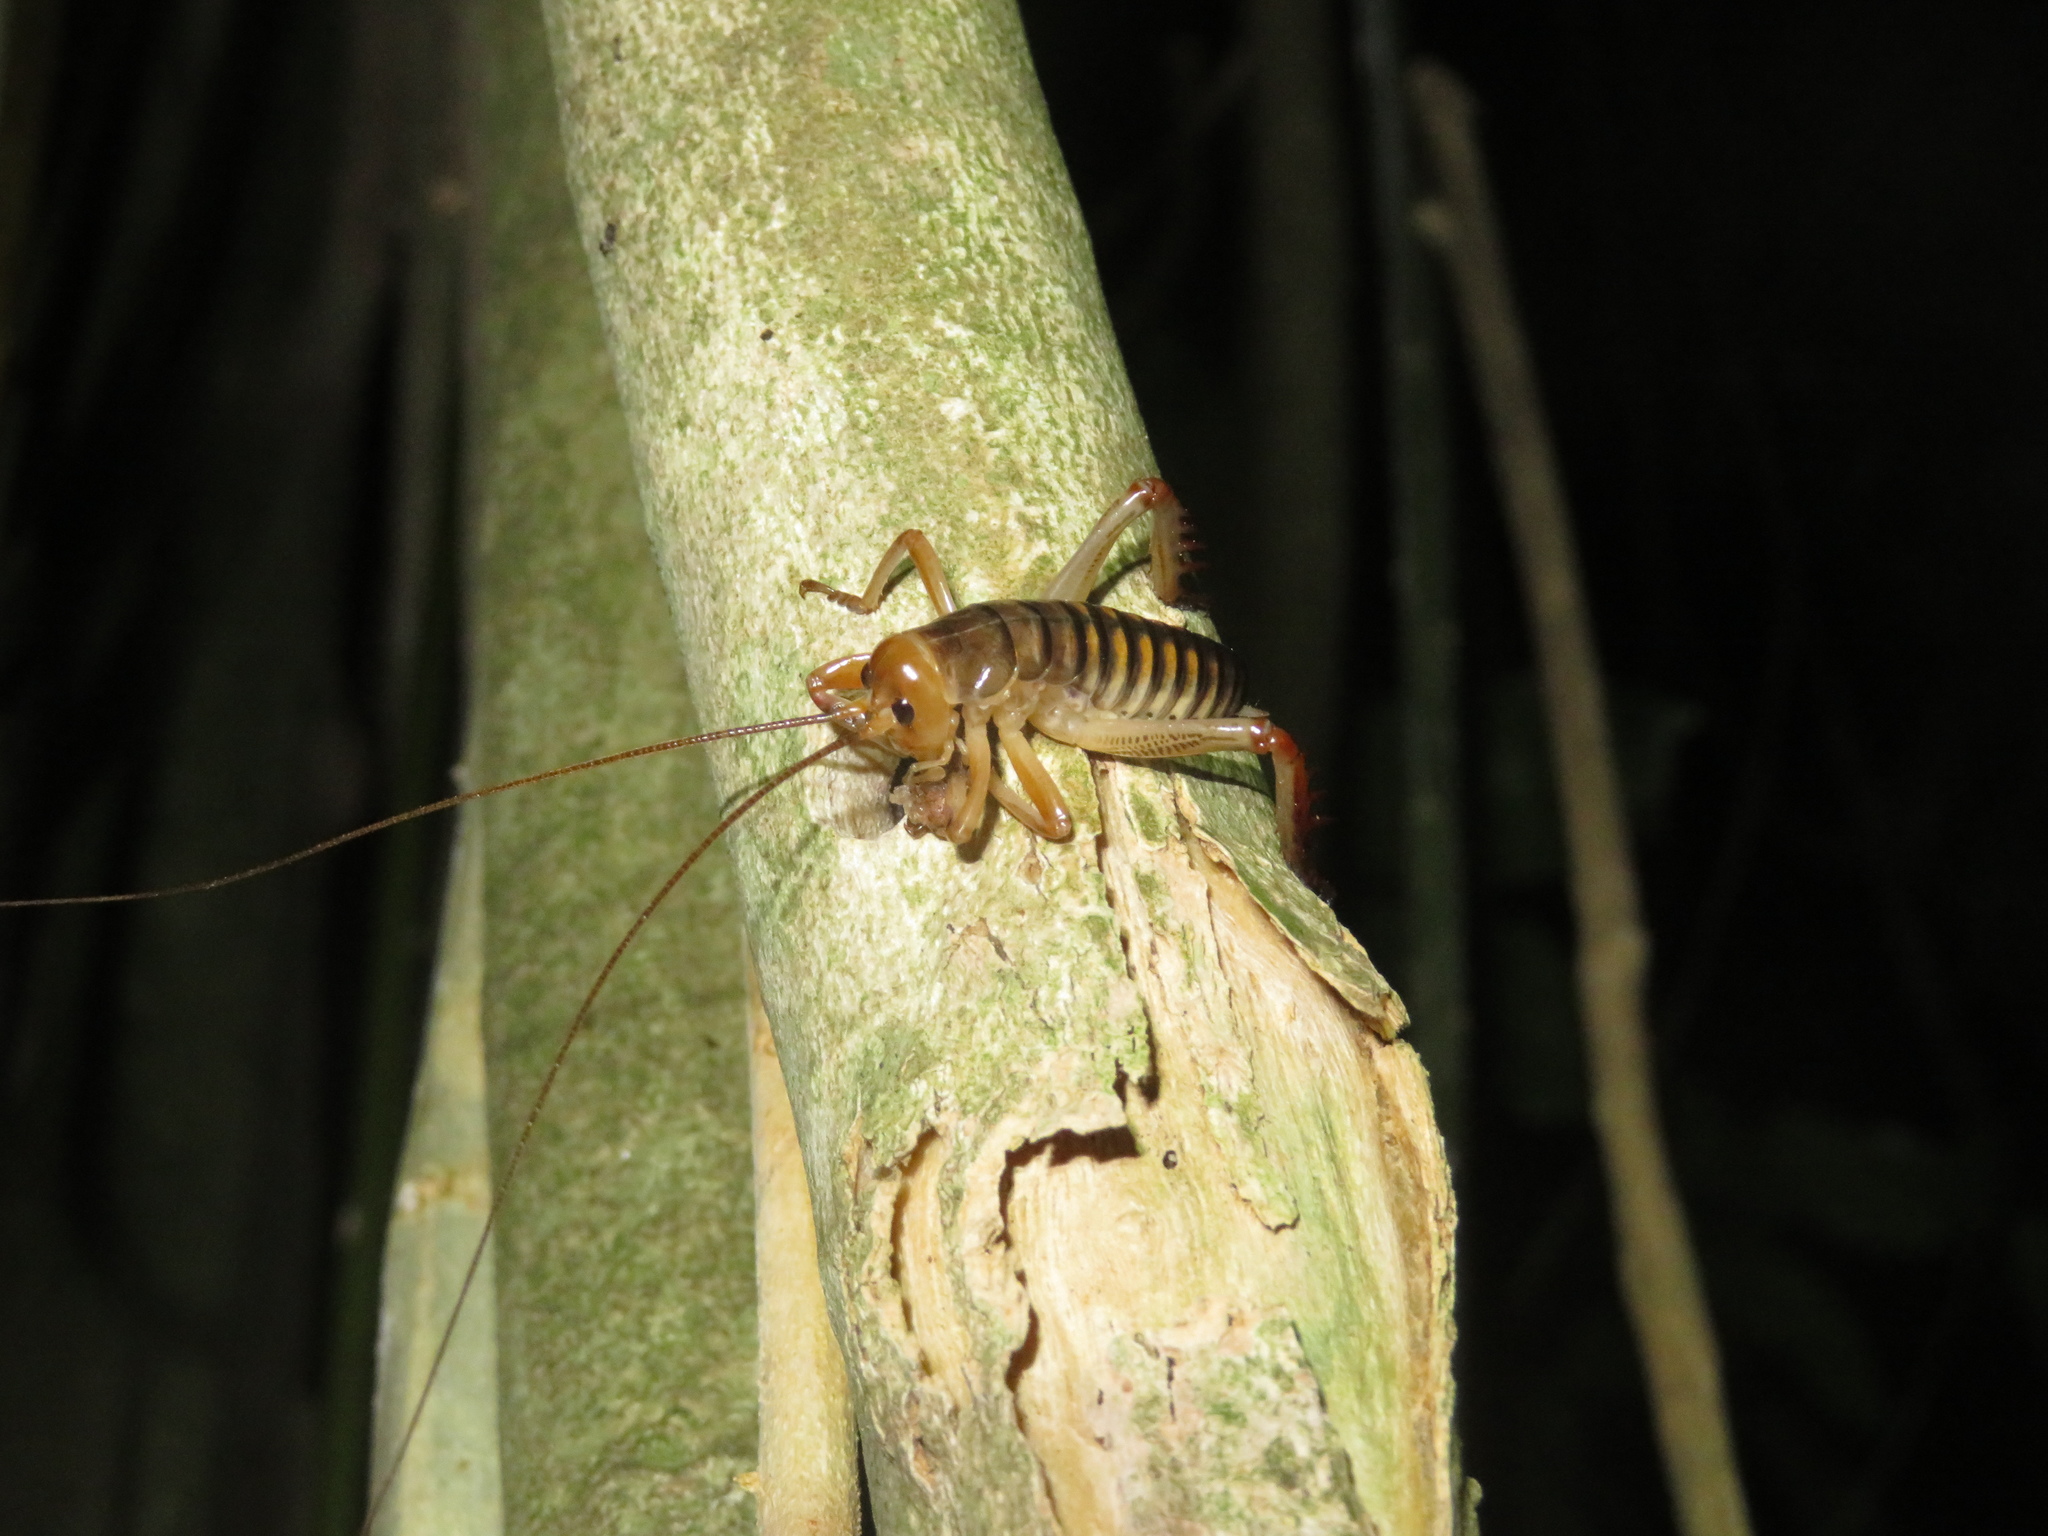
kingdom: Animalia
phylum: Arthropoda
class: Insecta
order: Orthoptera
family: Anostostomatidae
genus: Hemideina
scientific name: Hemideina crassidens
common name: Wellington tree weta
